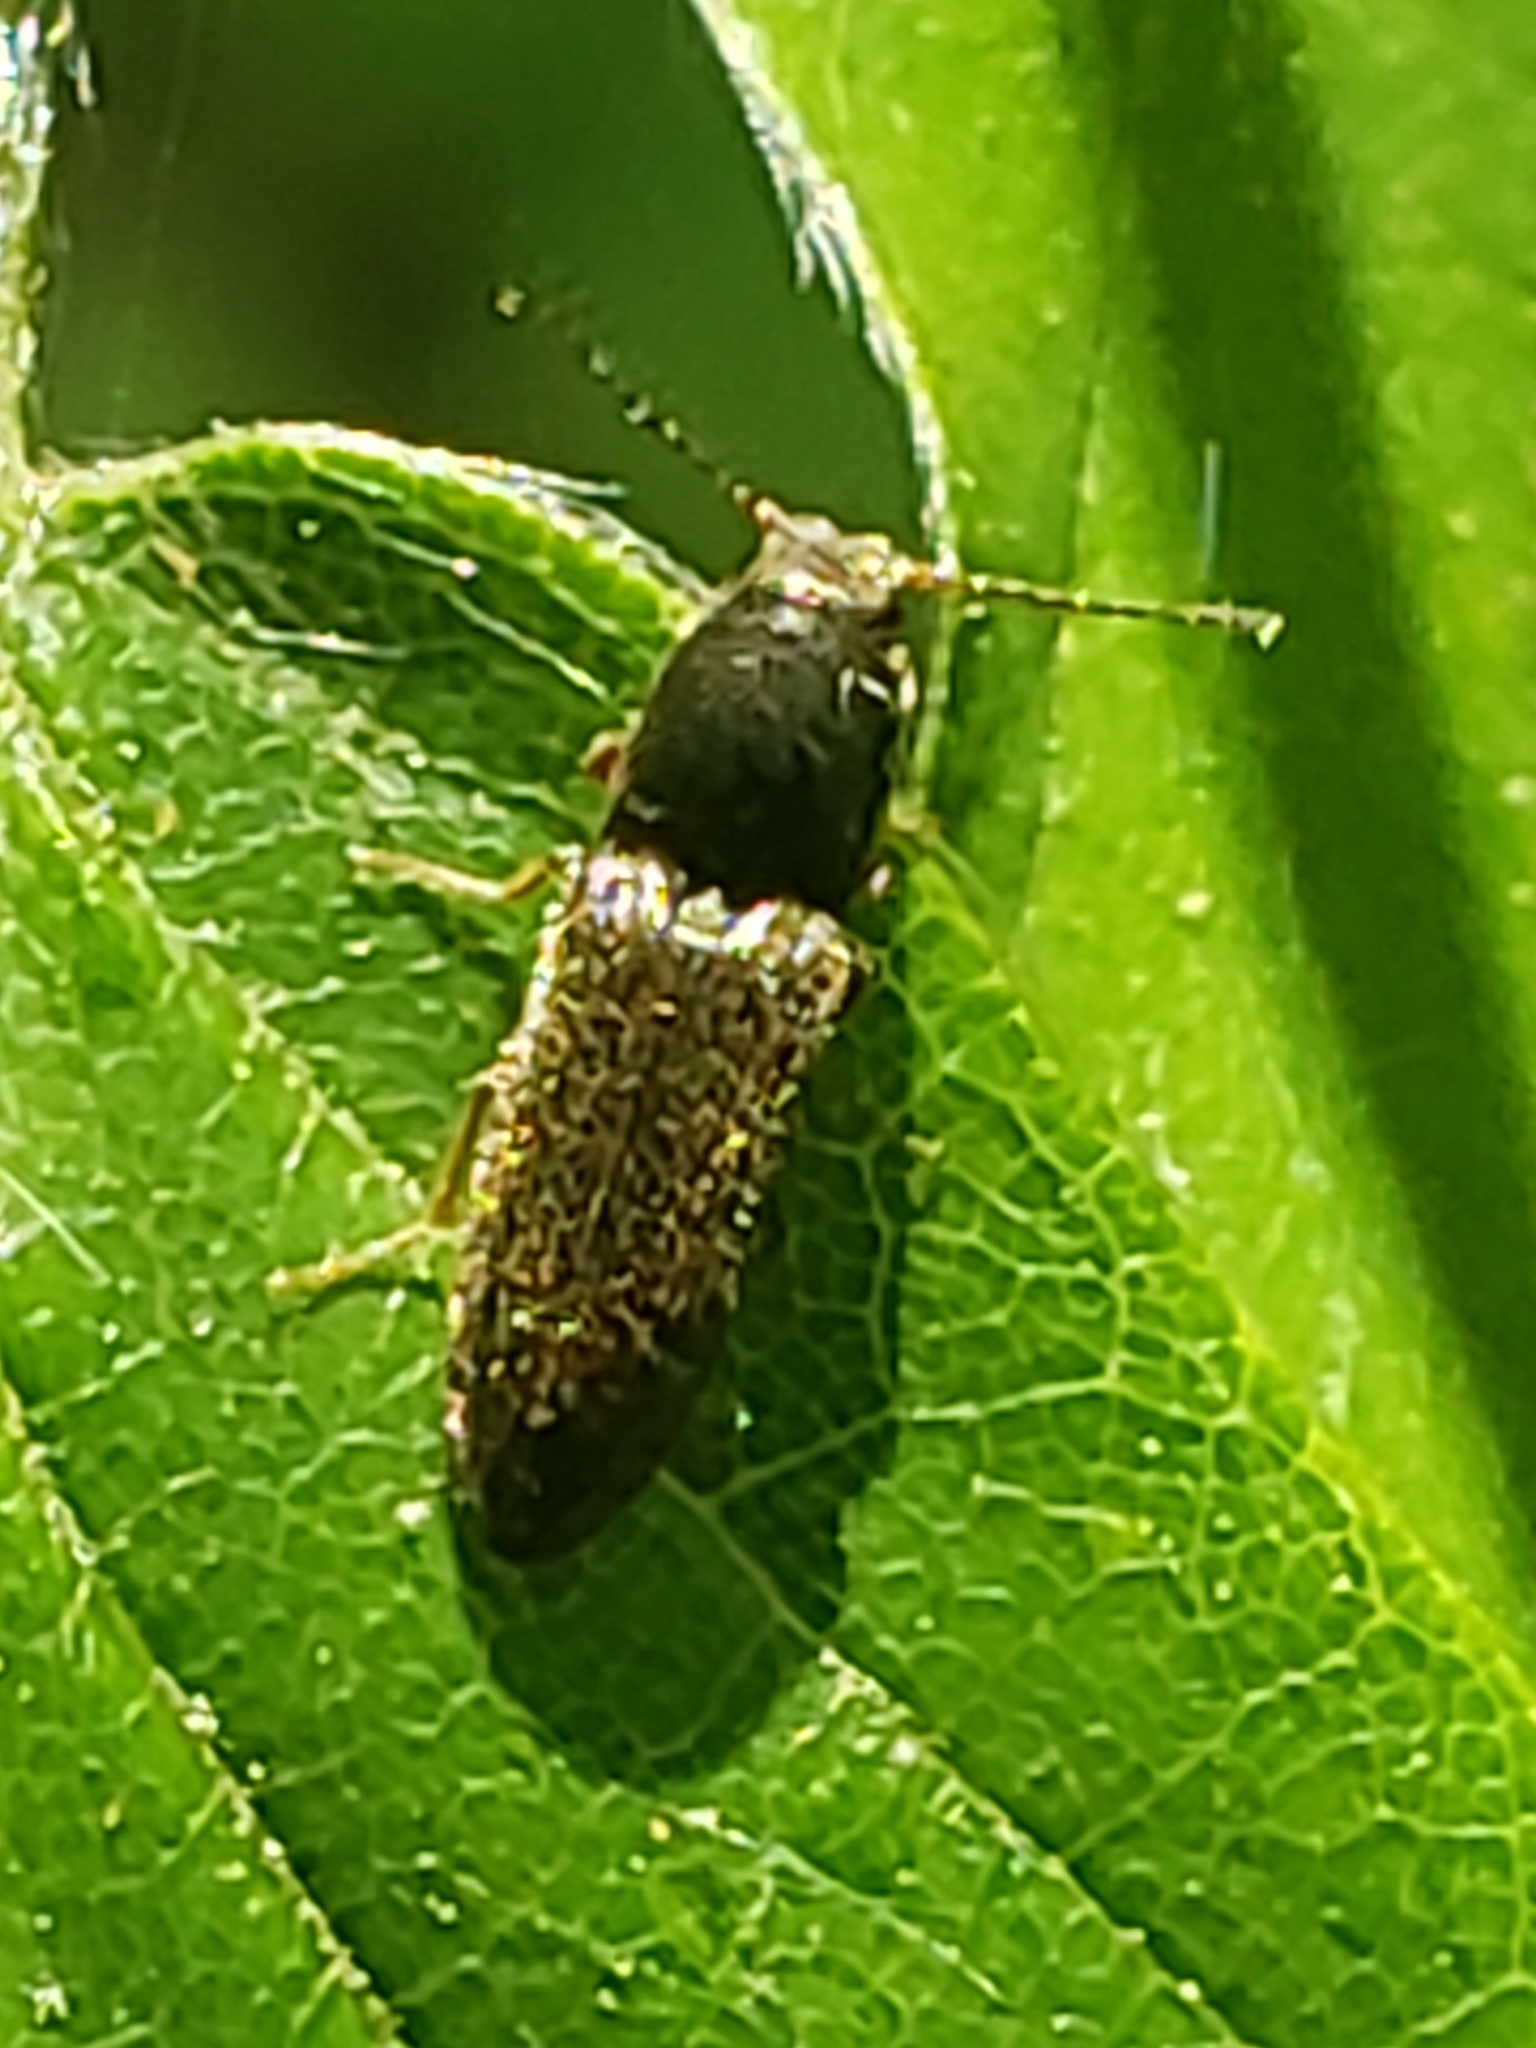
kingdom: Animalia
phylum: Arthropoda
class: Insecta
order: Coleoptera
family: Elateridae
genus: Limonius
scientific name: Limonius quercinus
